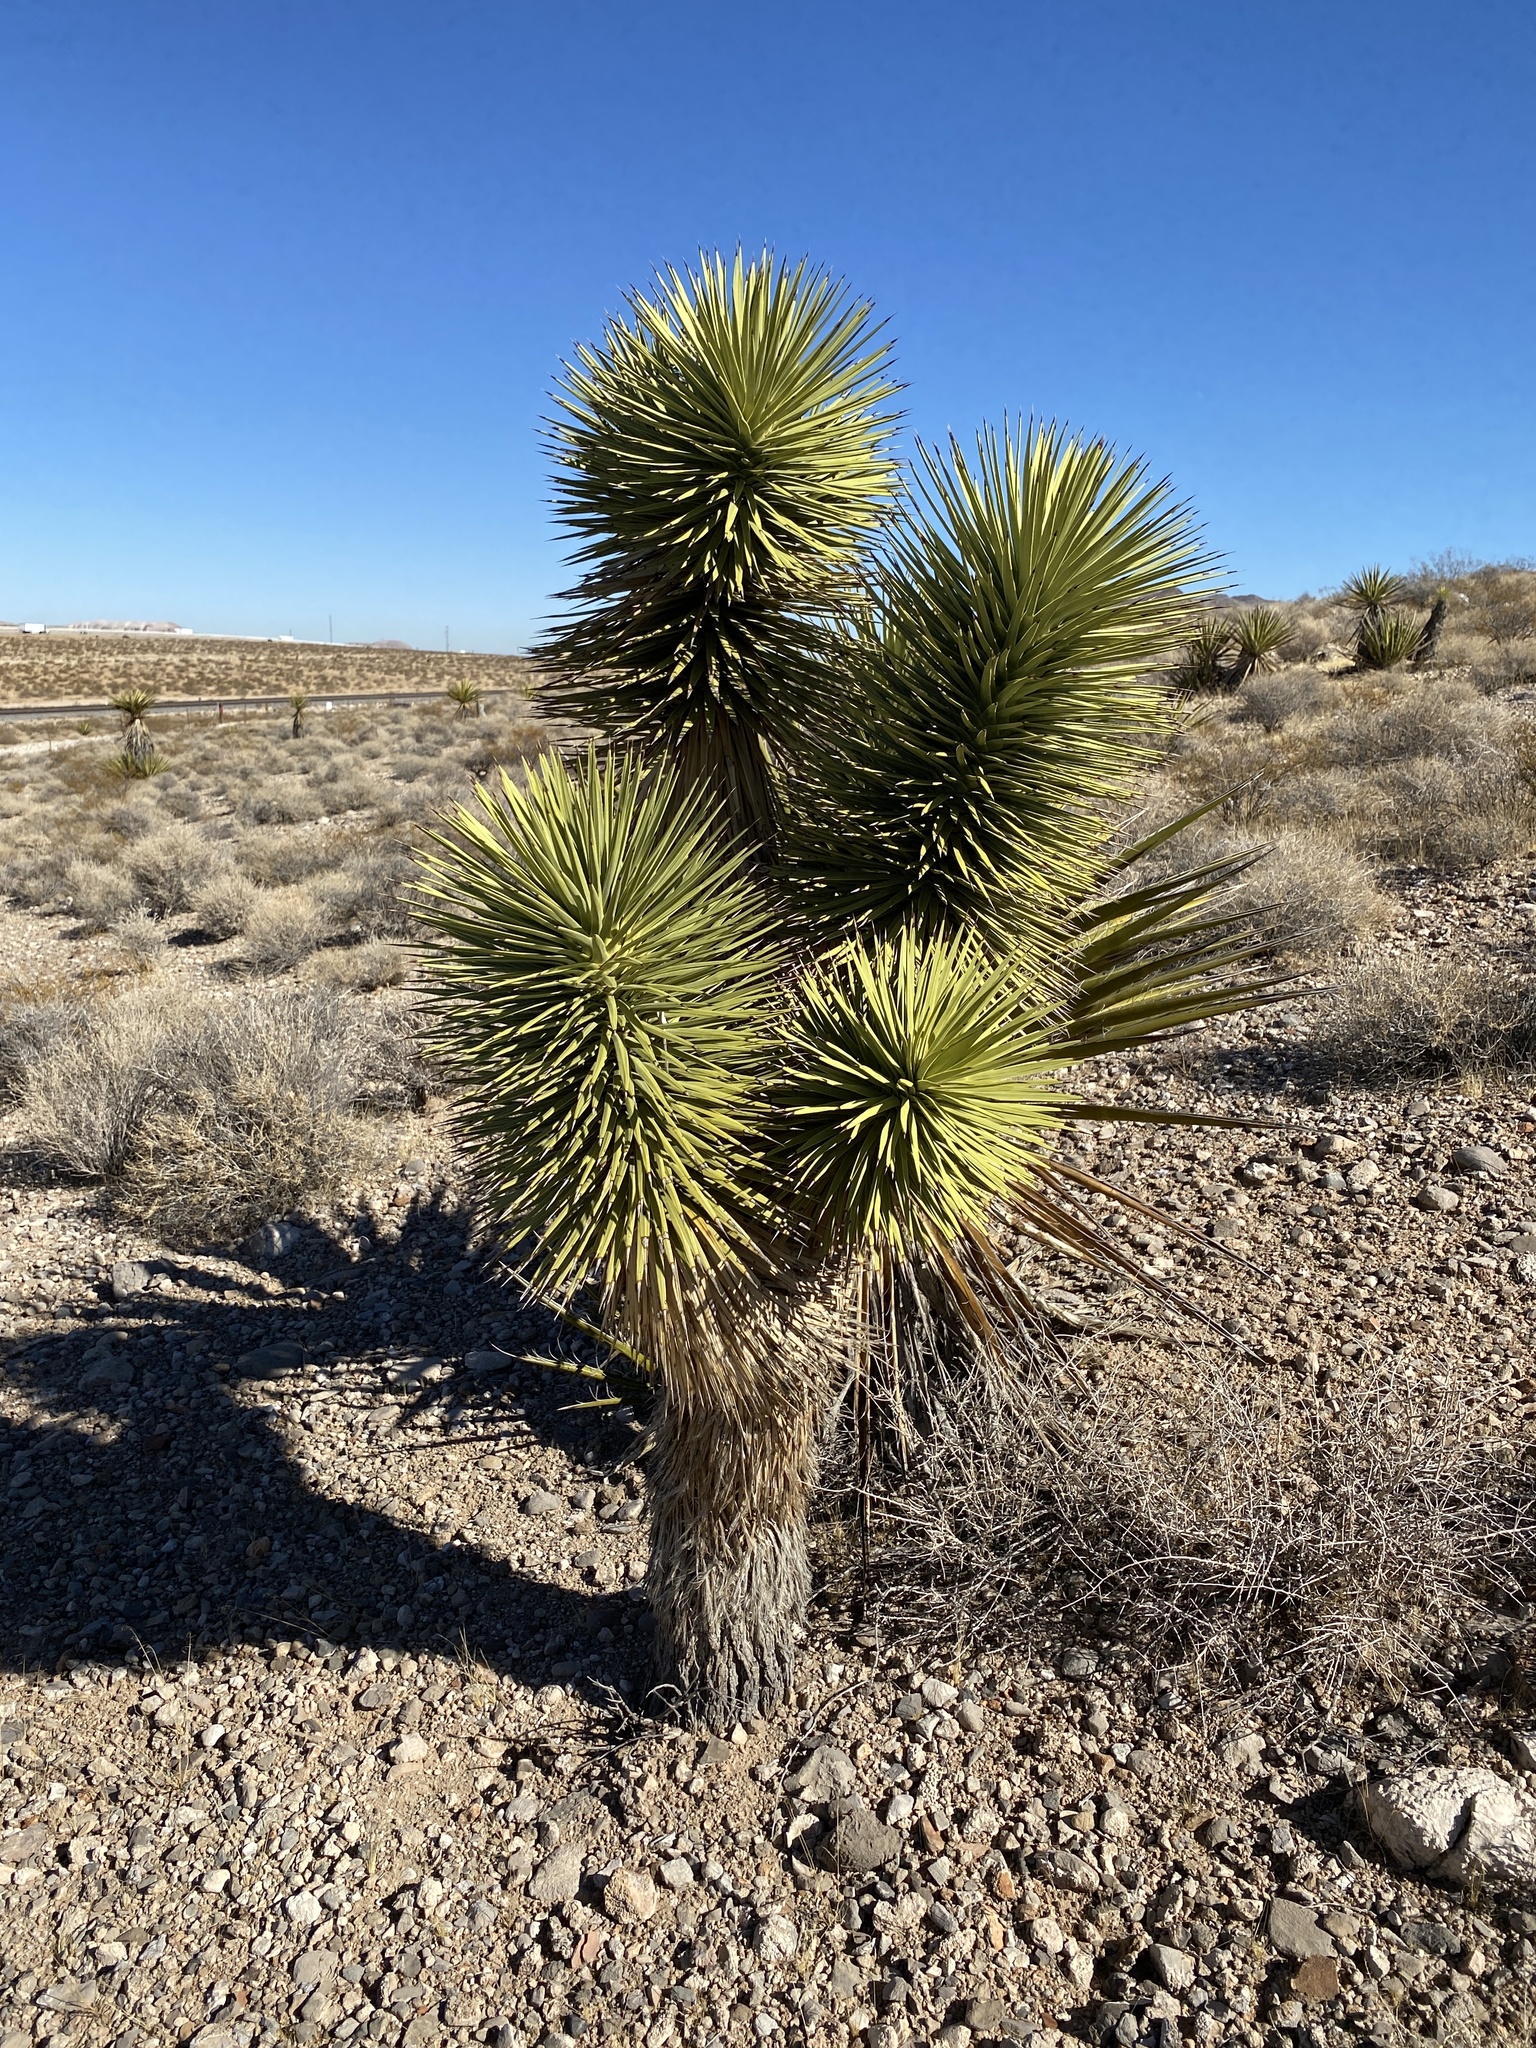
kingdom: Plantae
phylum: Tracheophyta
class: Liliopsida
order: Asparagales
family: Asparagaceae
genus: Yucca
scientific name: Yucca brevifolia
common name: Joshua tree
